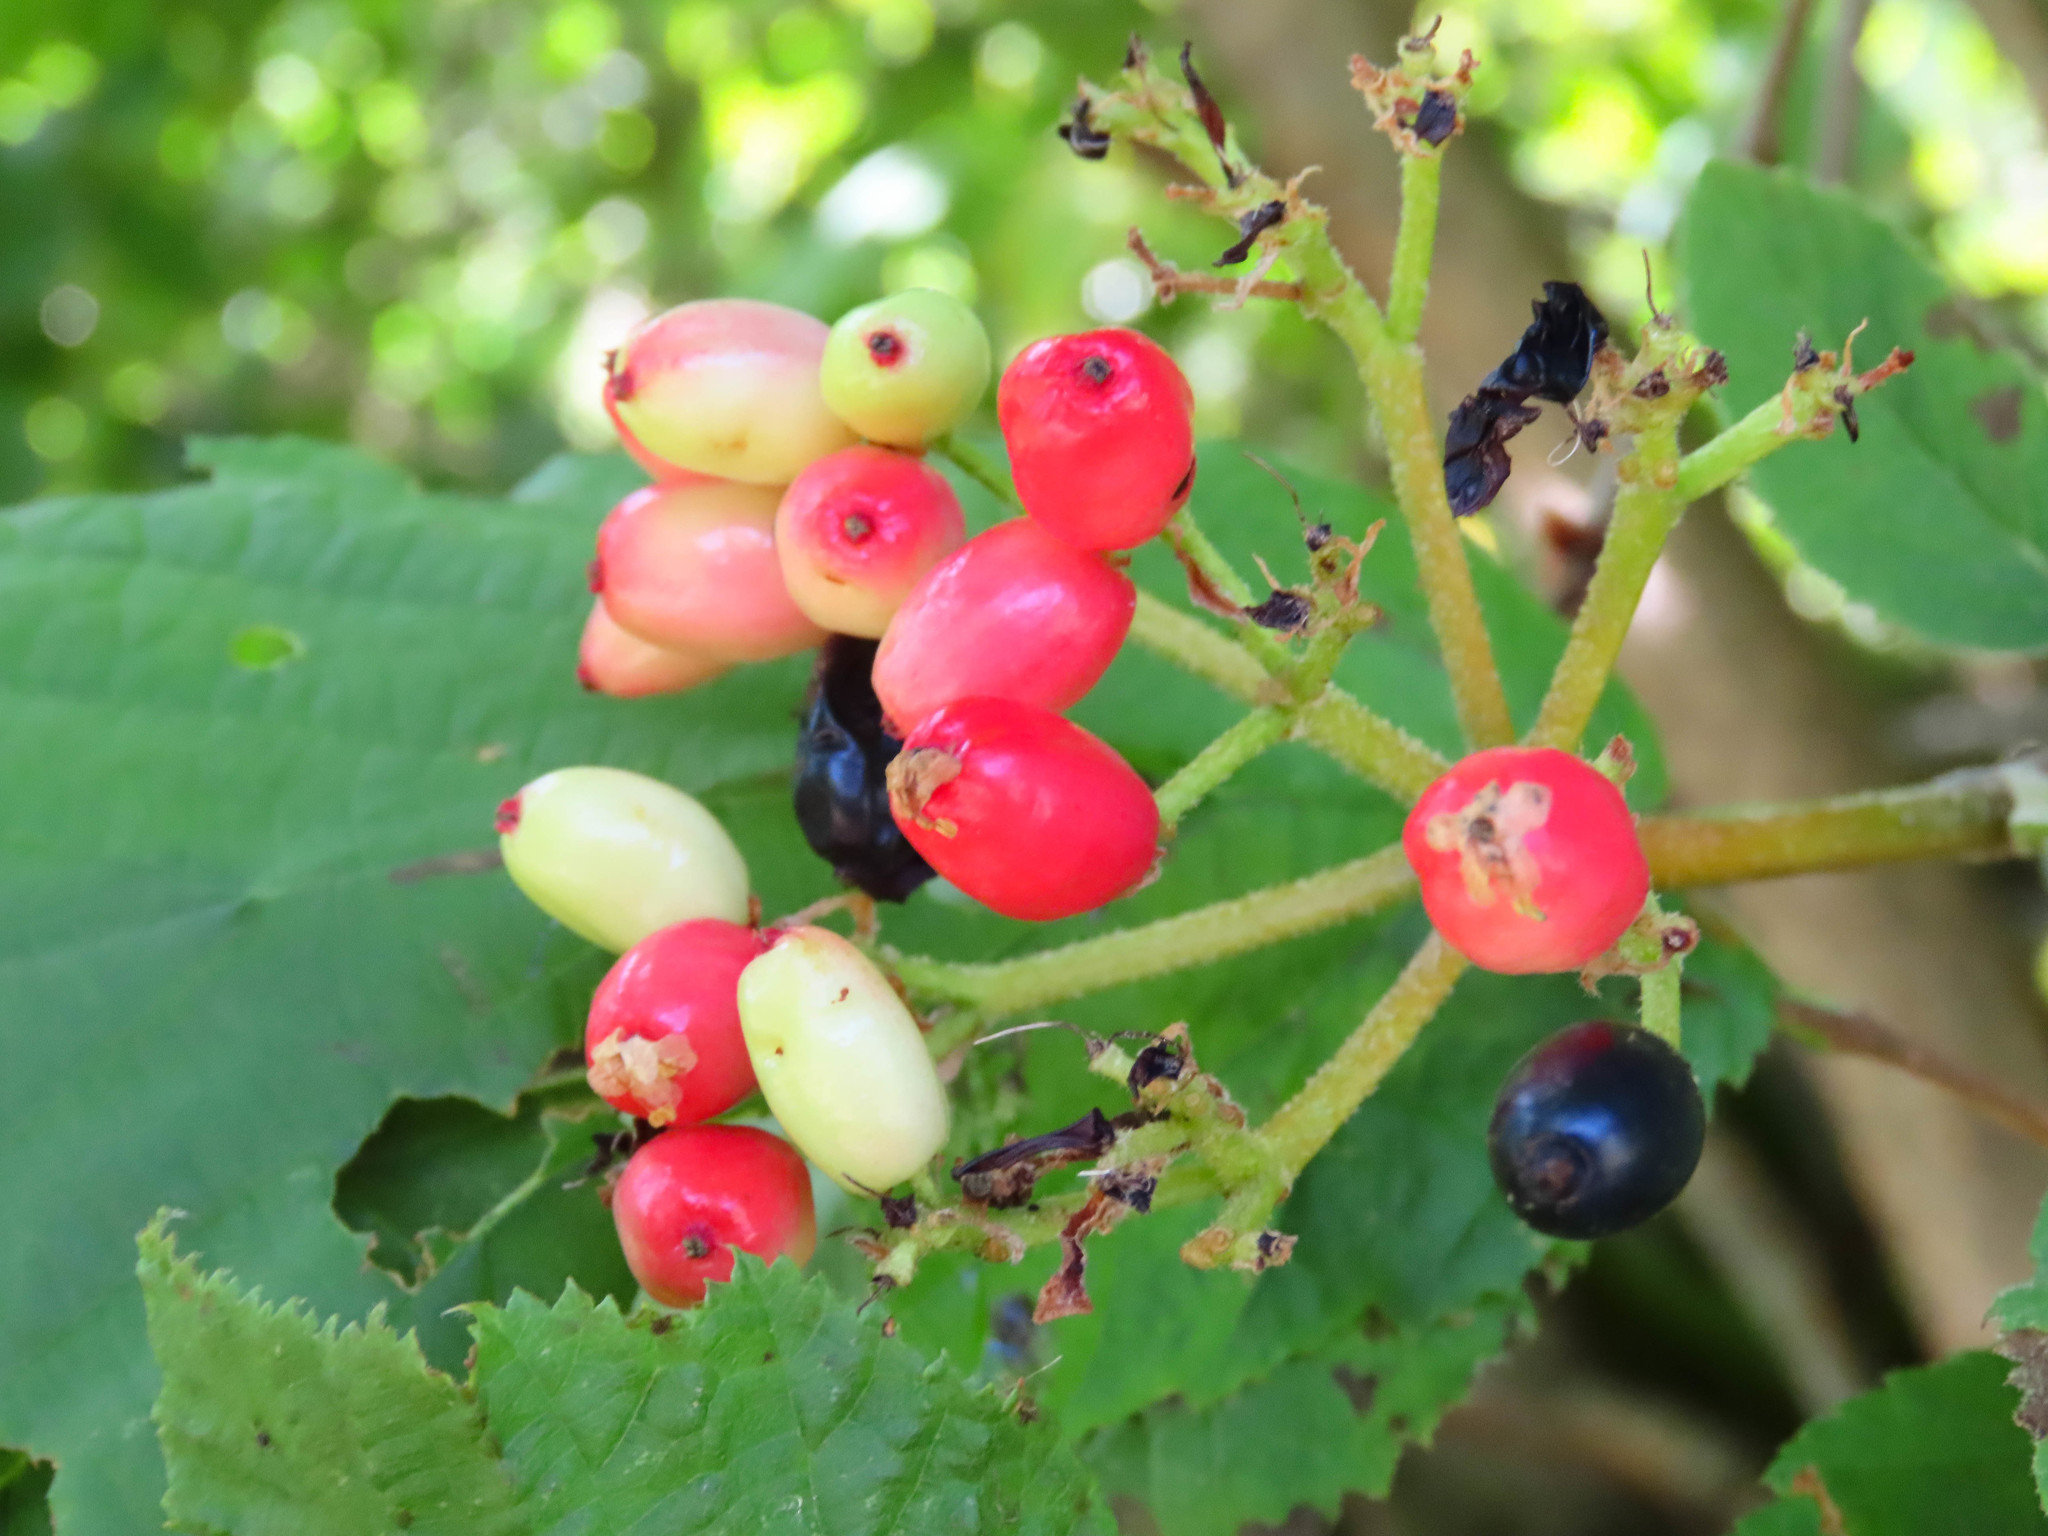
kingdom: Plantae
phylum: Tracheophyta
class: Magnoliopsida
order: Dipsacales
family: Viburnaceae
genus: Viburnum
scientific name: Viburnum lantana
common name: Wayfaring tree
